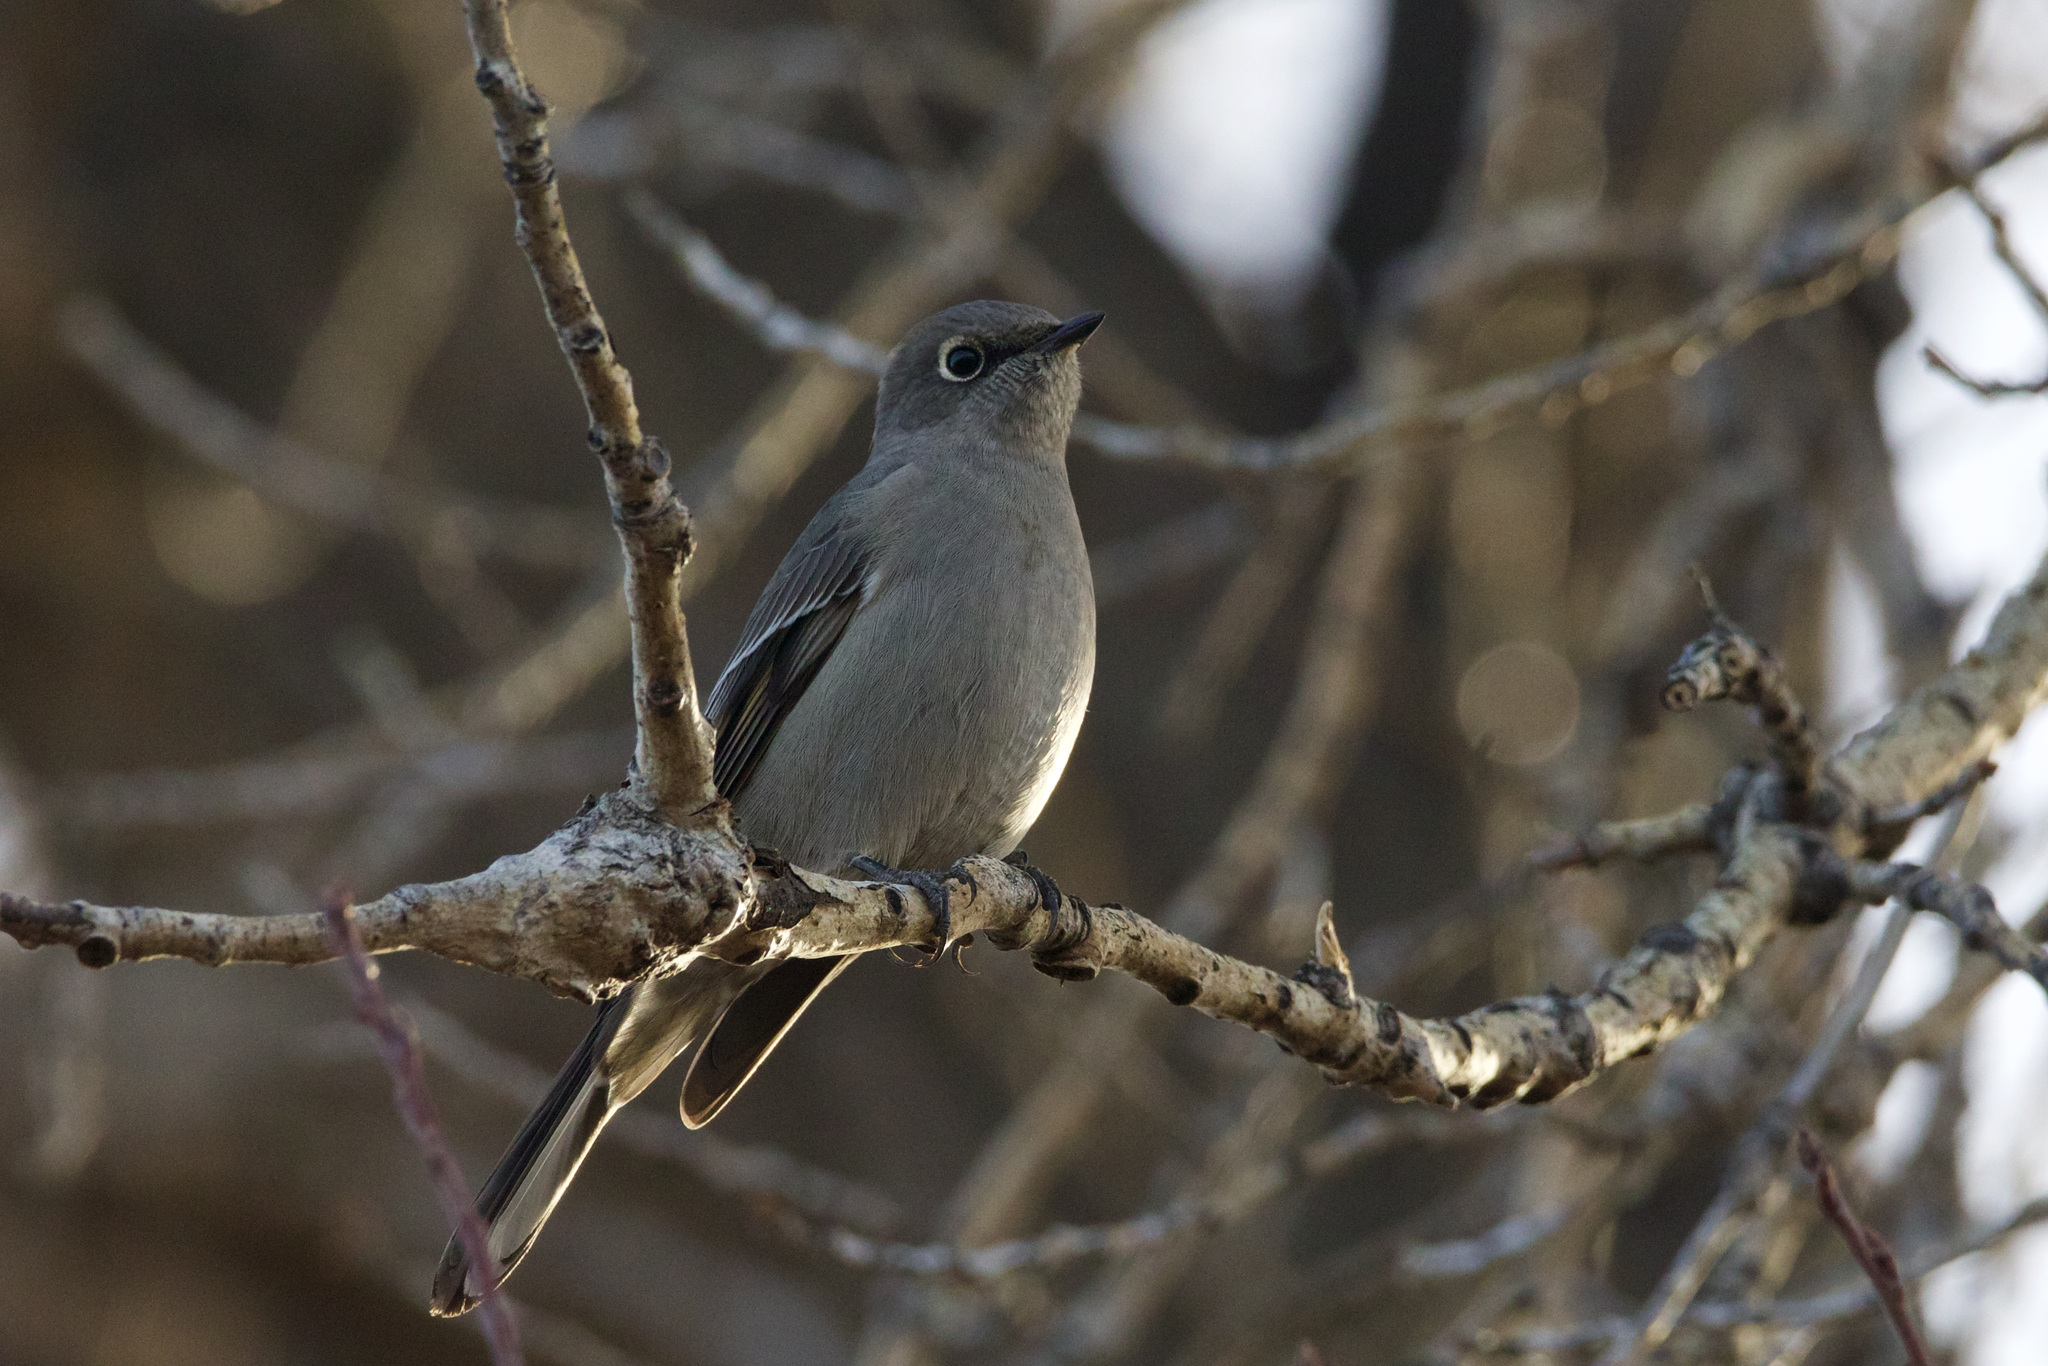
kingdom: Animalia
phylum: Chordata
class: Aves
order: Passeriformes
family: Turdidae
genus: Myadestes
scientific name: Myadestes townsendi
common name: Townsend's solitaire
